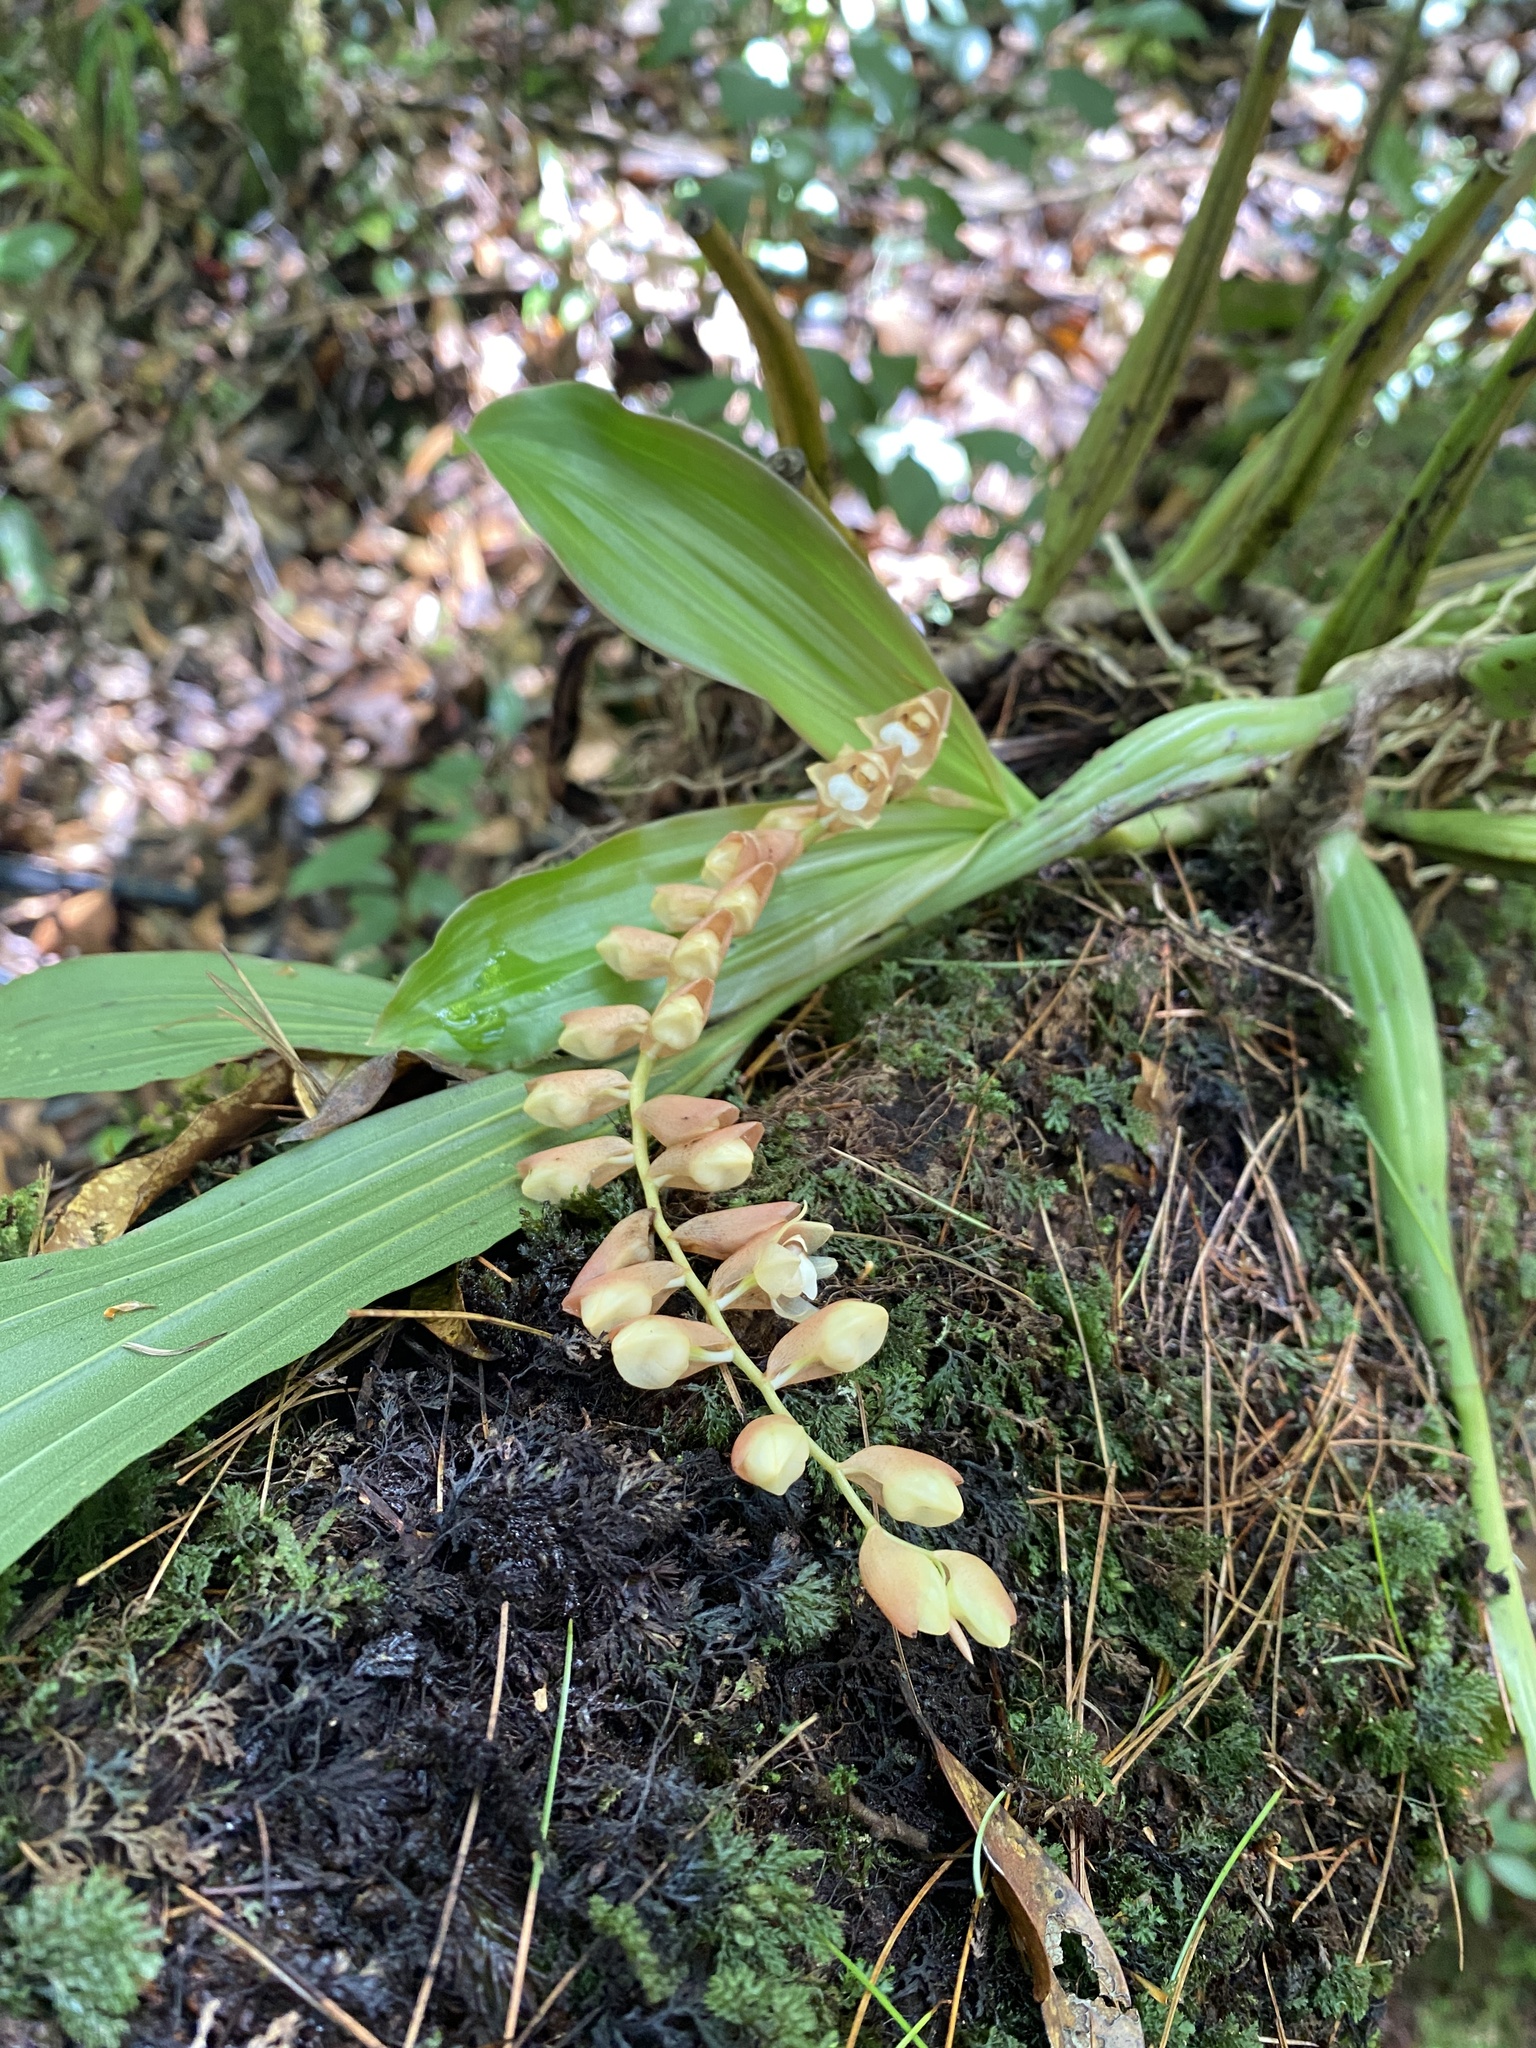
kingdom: Plantae
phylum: Tracheophyta
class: Liliopsida
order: Asparagales
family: Orchidaceae
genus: Coelogyne
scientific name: Coelogyne chinensis
